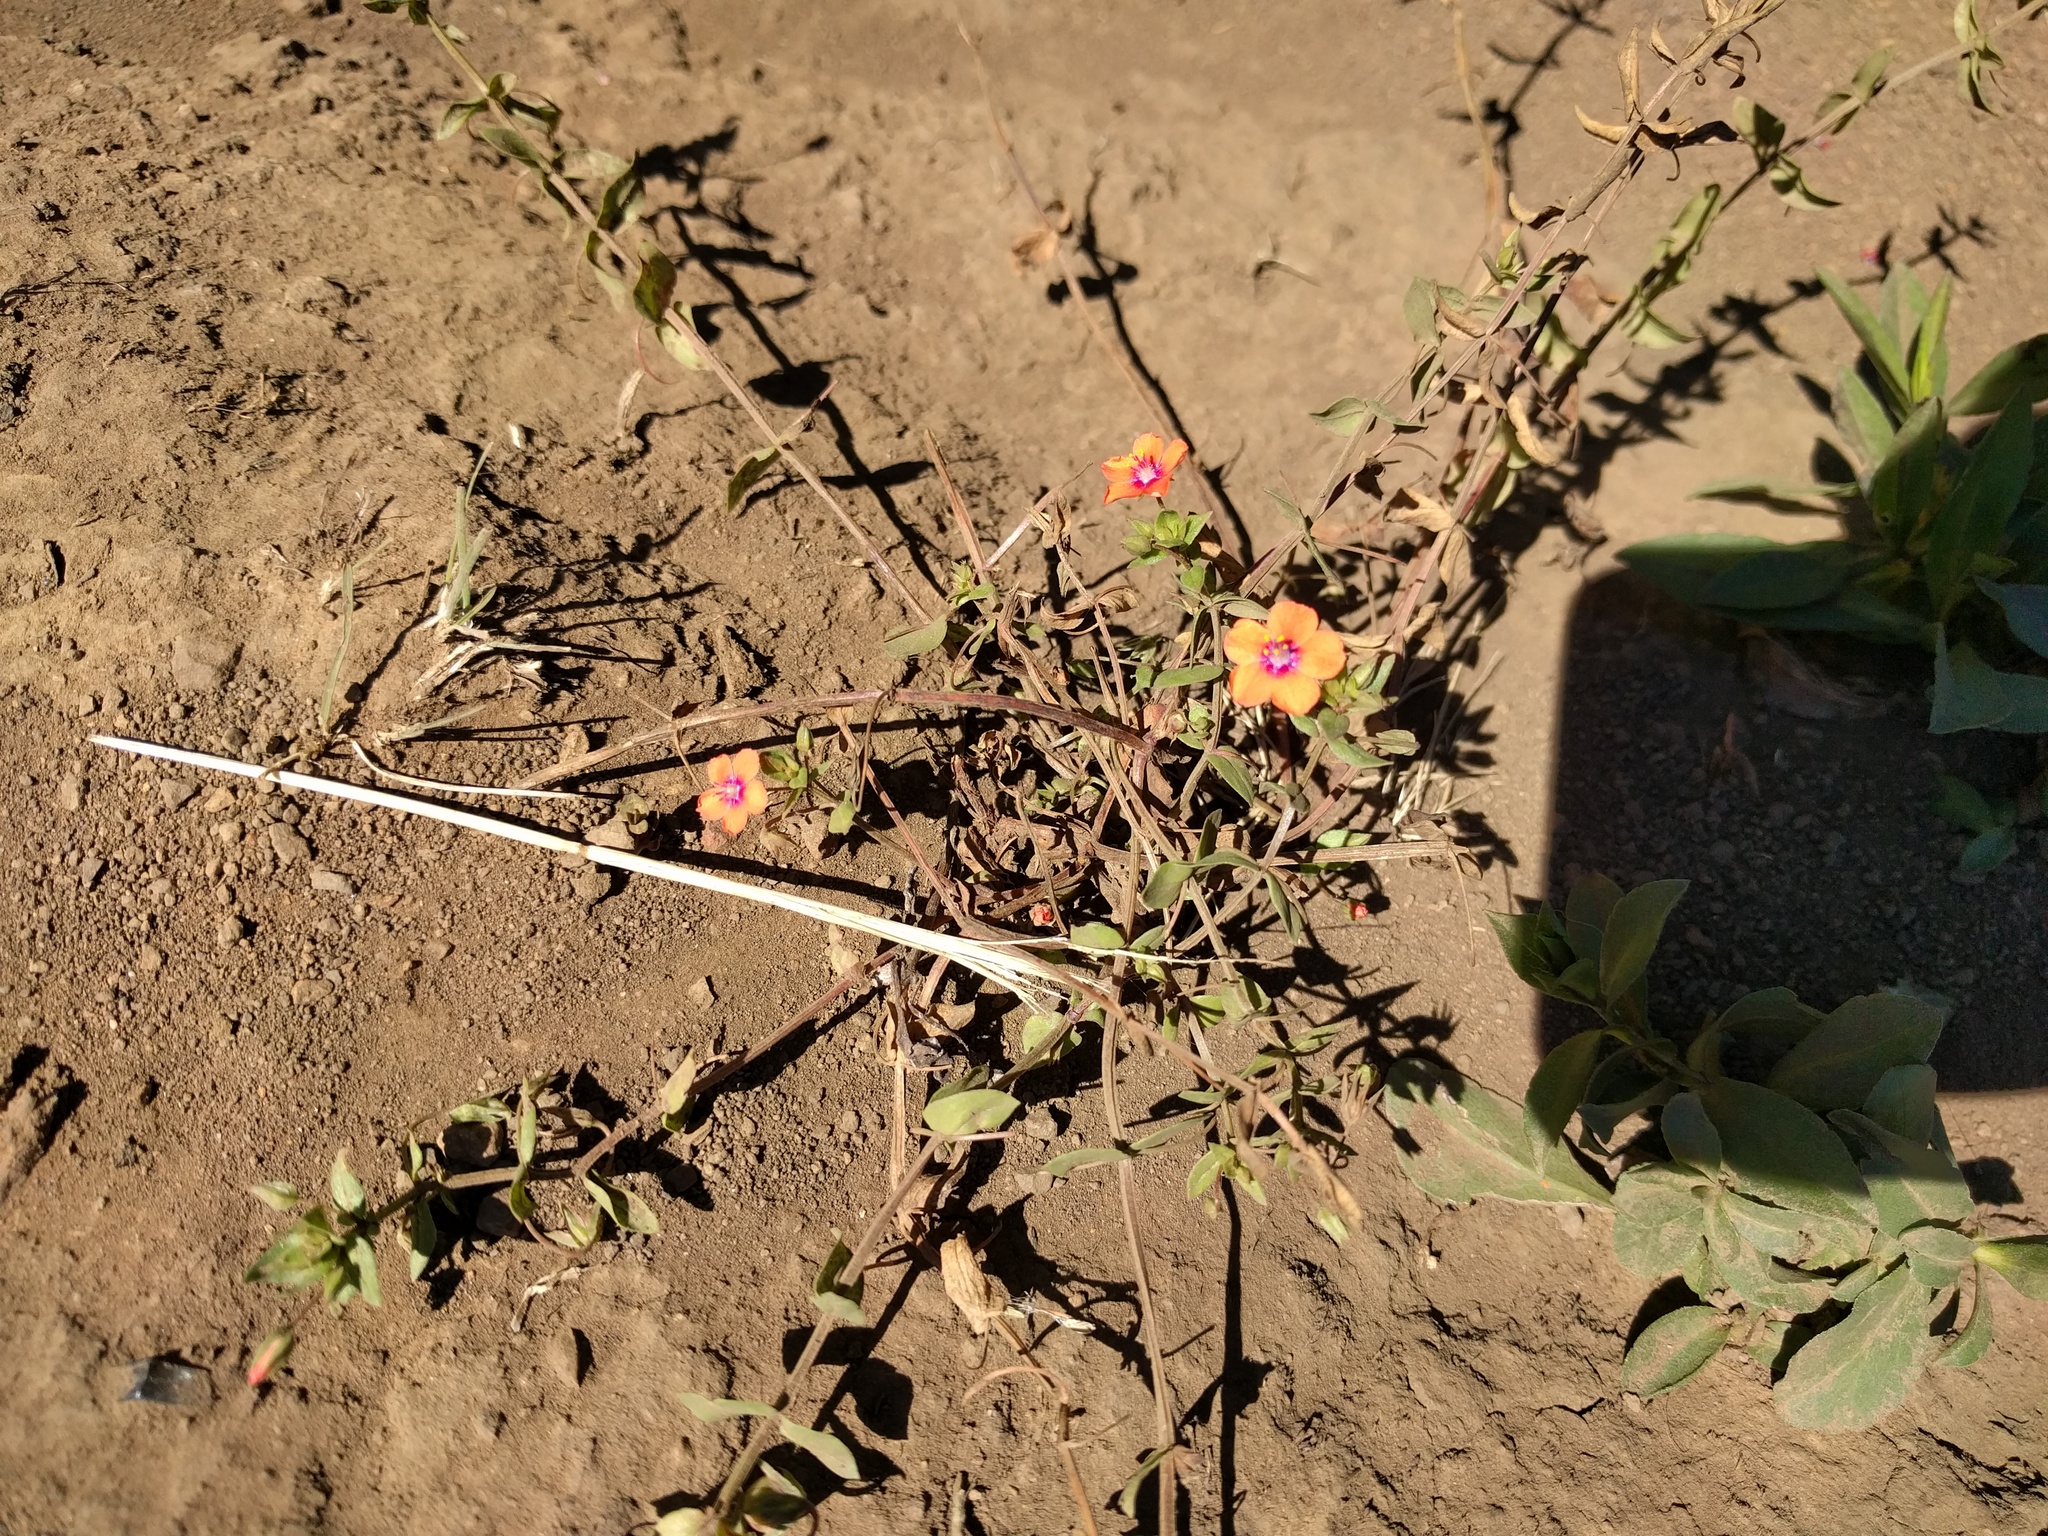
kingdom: Plantae
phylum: Tracheophyta
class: Magnoliopsida
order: Ericales
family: Primulaceae
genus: Lysimachia
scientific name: Lysimachia arvensis
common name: Scarlet pimpernel
